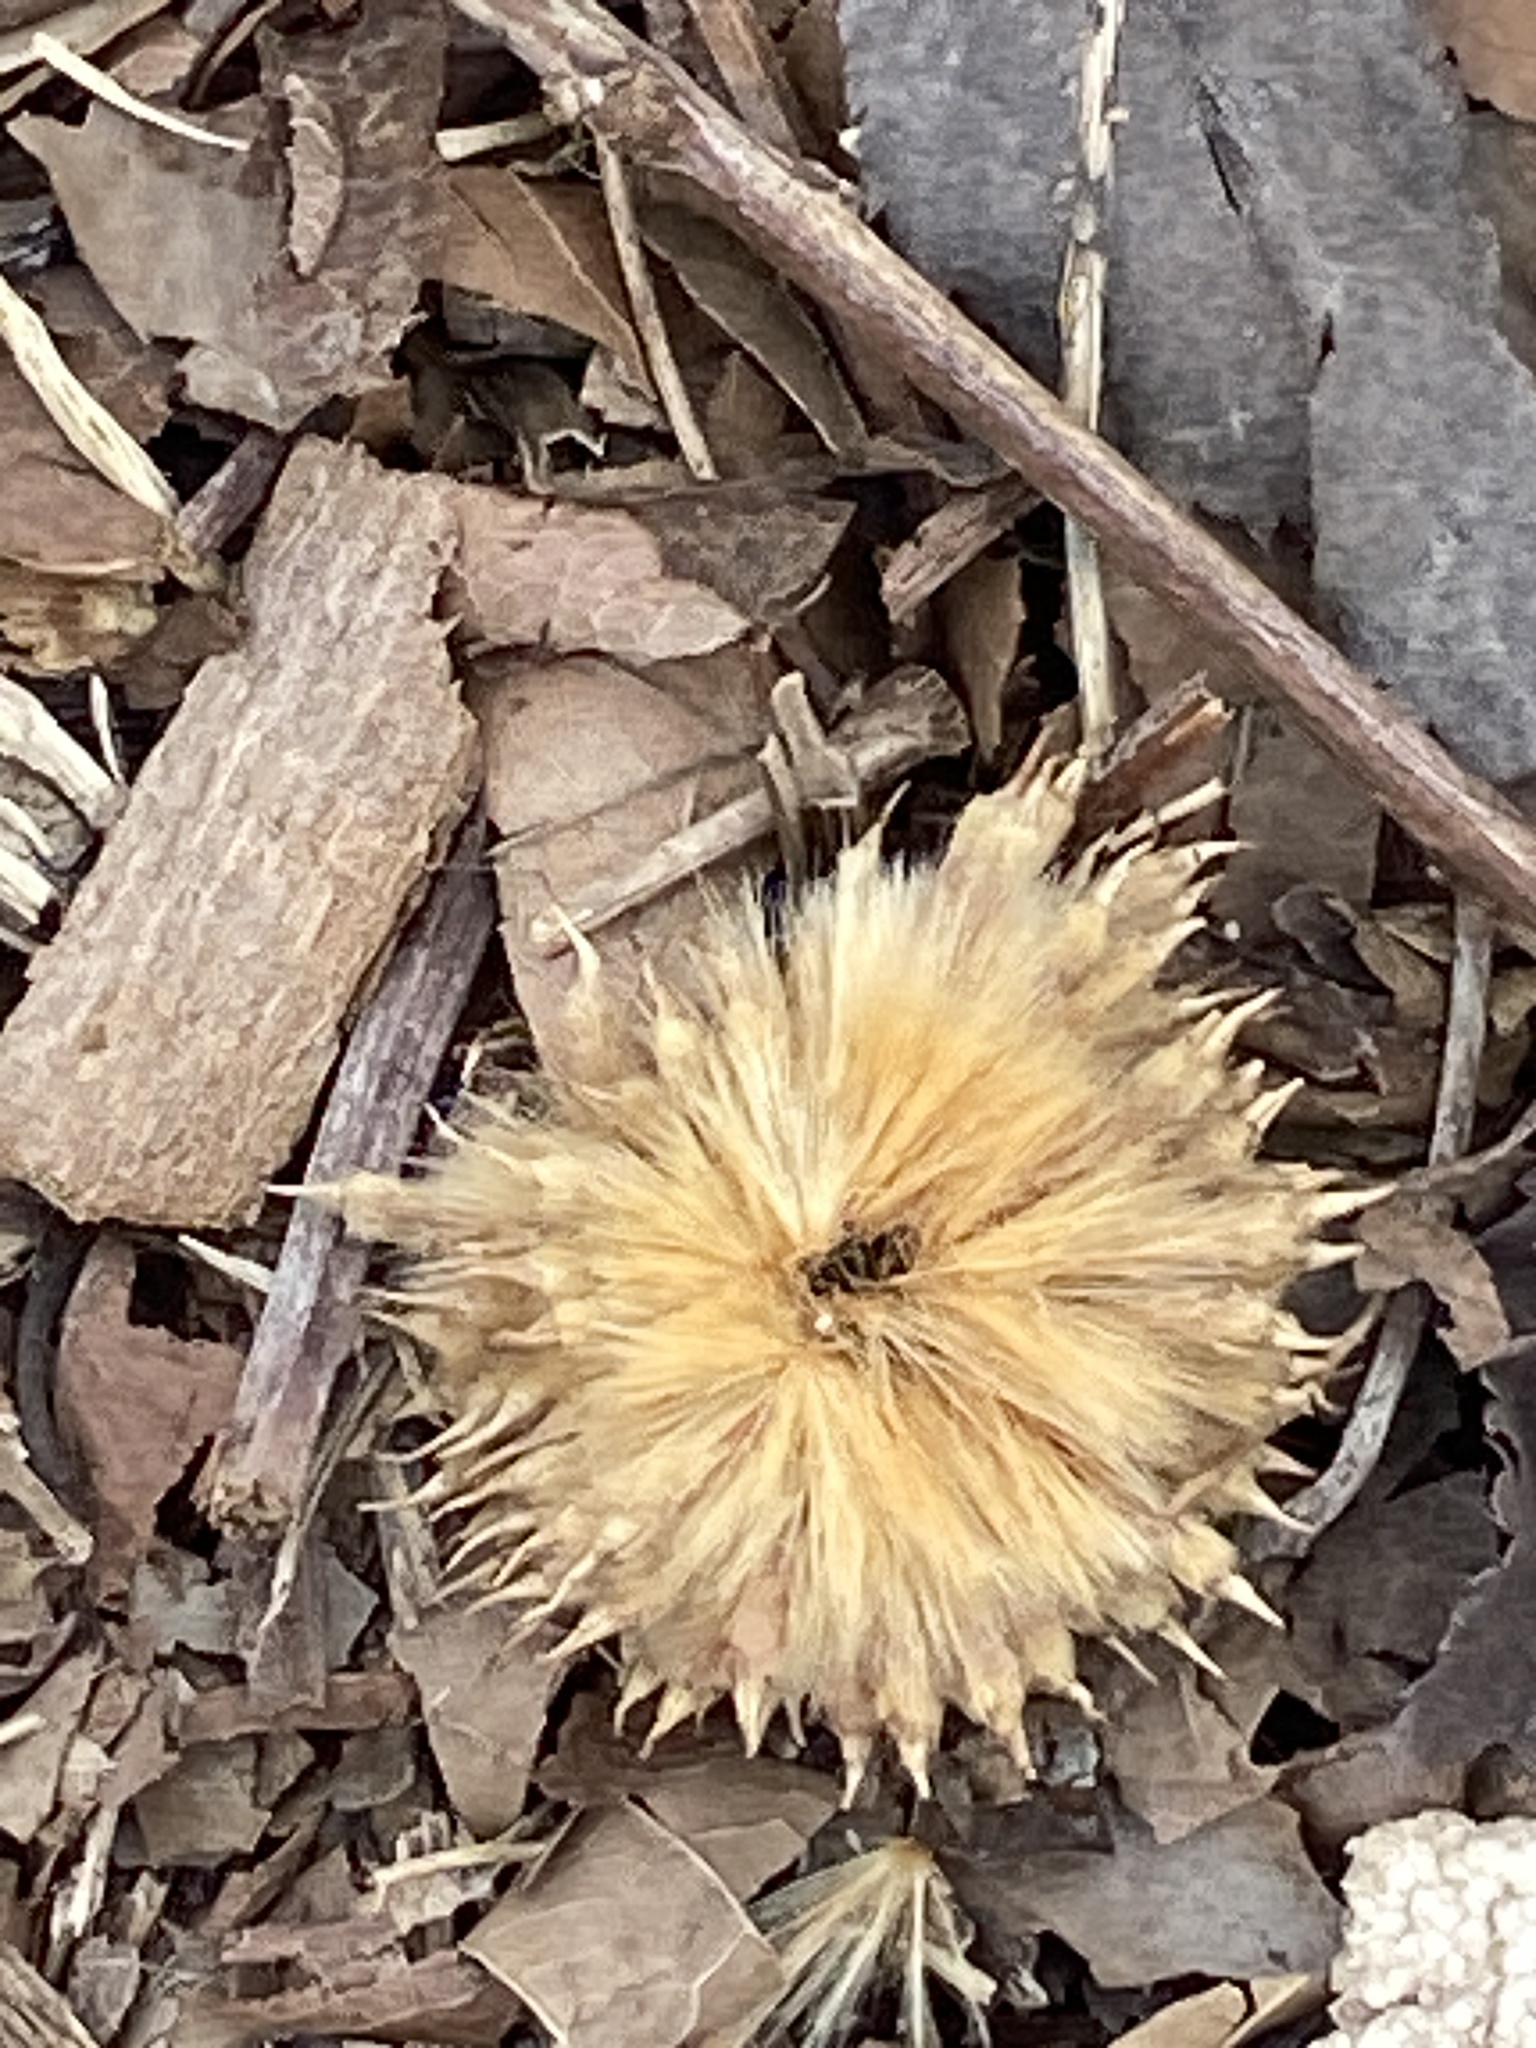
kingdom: Plantae
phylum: Tracheophyta
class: Magnoliopsida
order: Proteales
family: Platanaceae
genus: Platanus
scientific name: Platanus occidentalis
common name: American sycamore
